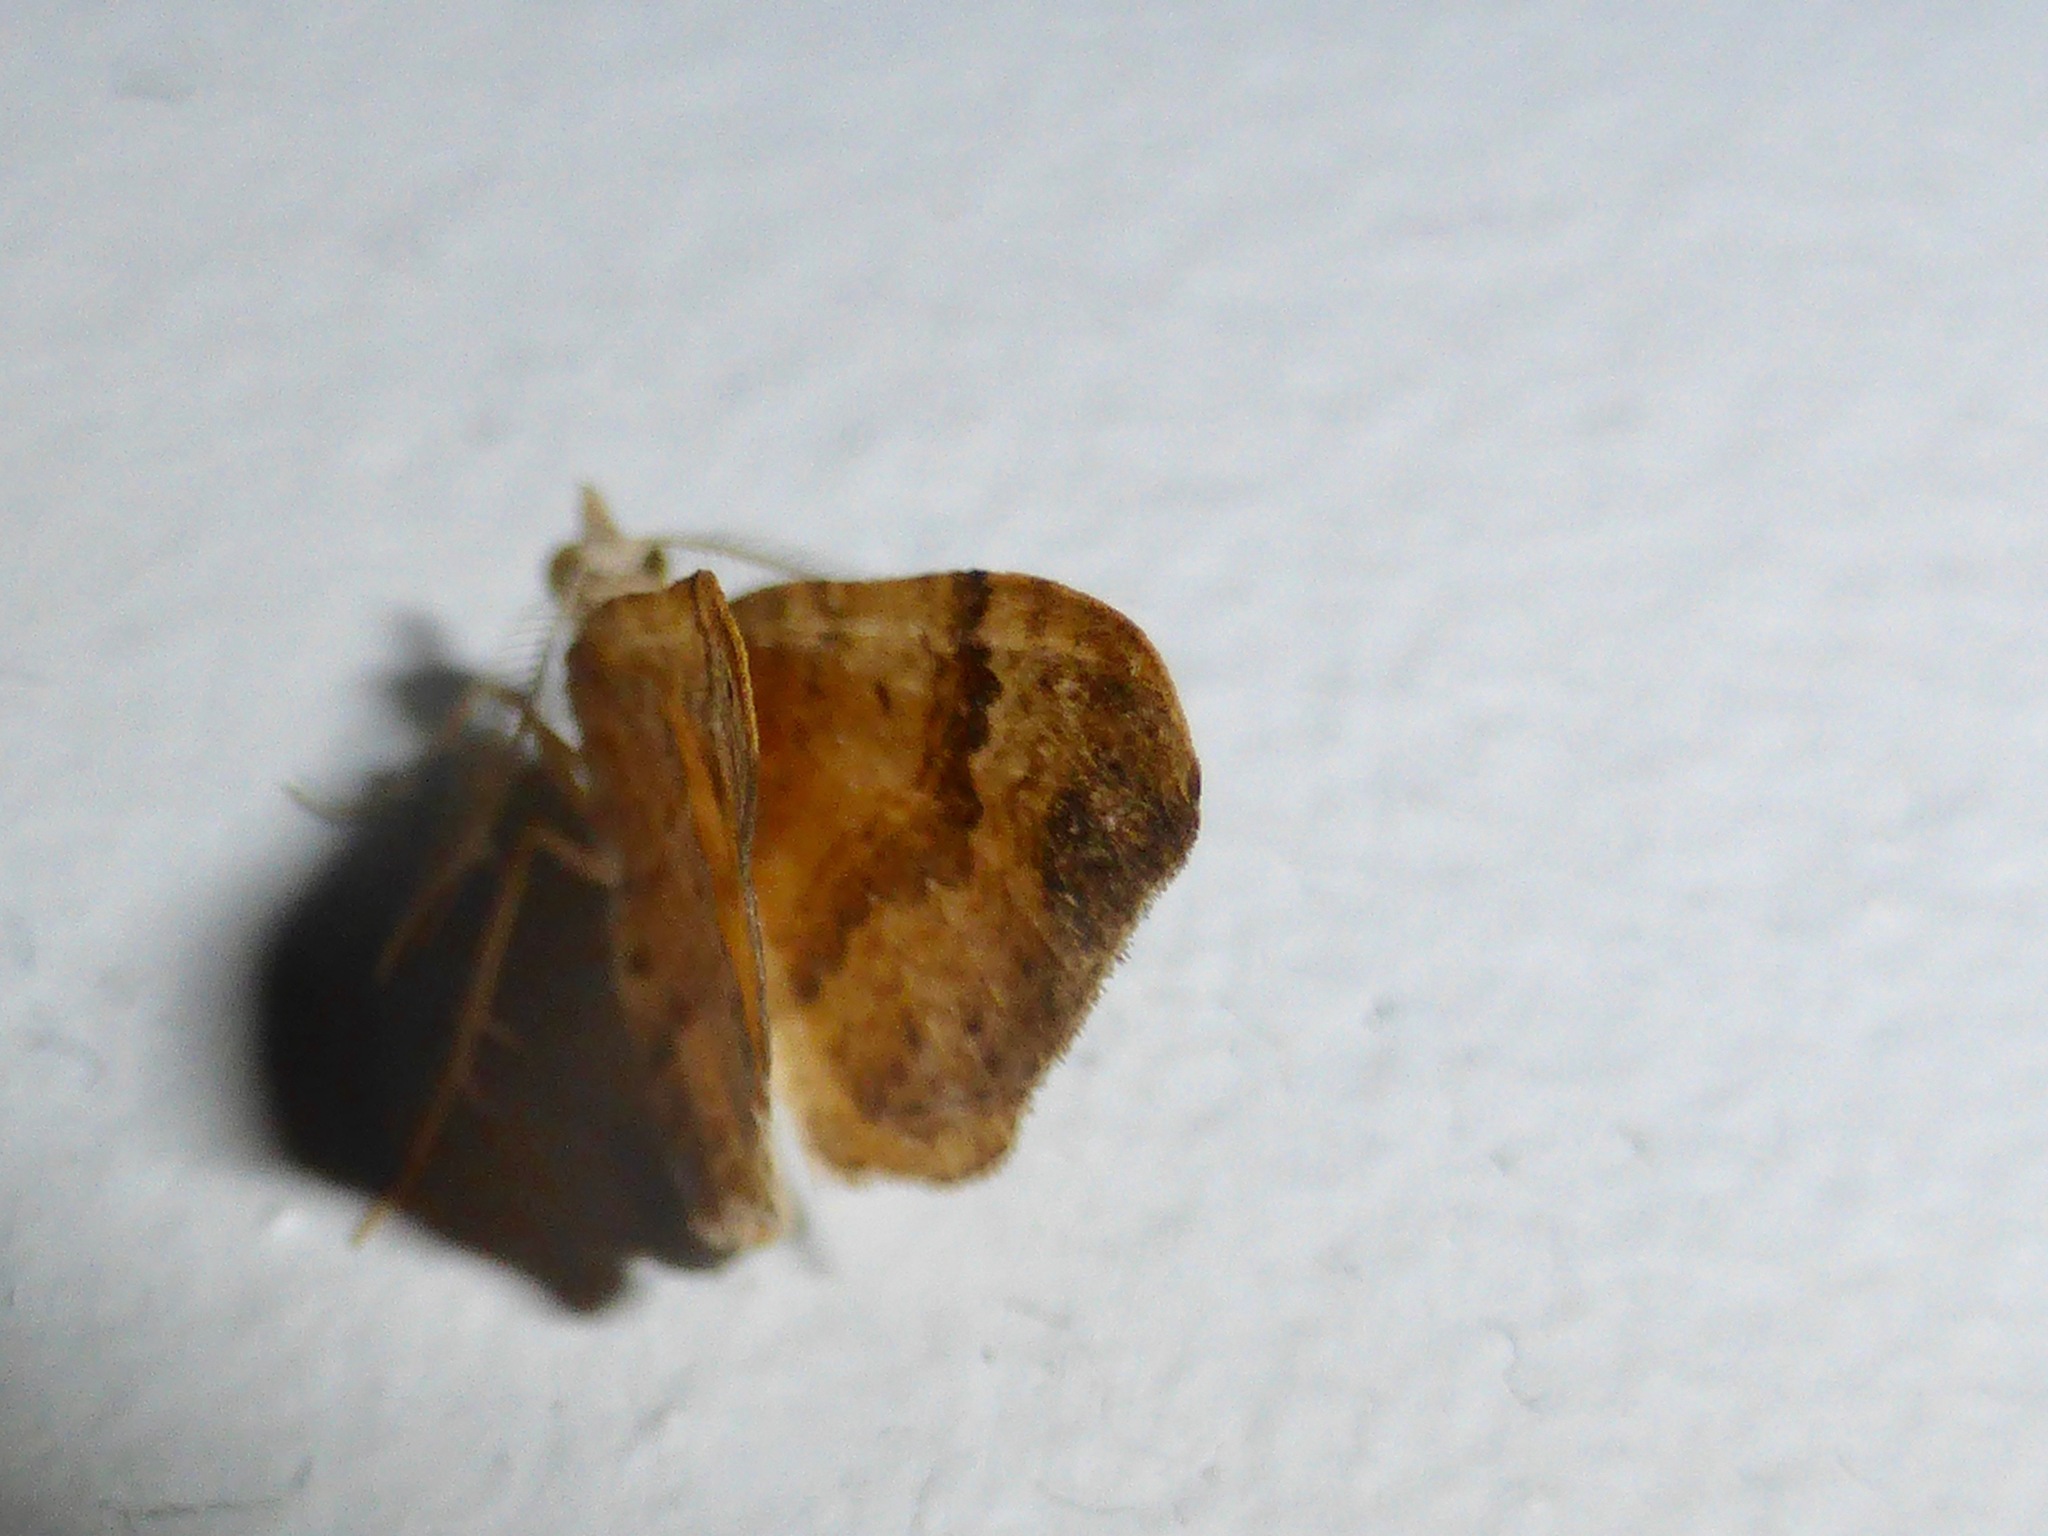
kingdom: Animalia
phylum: Arthropoda
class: Insecta
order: Lepidoptera
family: Geometridae
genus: Homodotis
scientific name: Homodotis megaspilata
